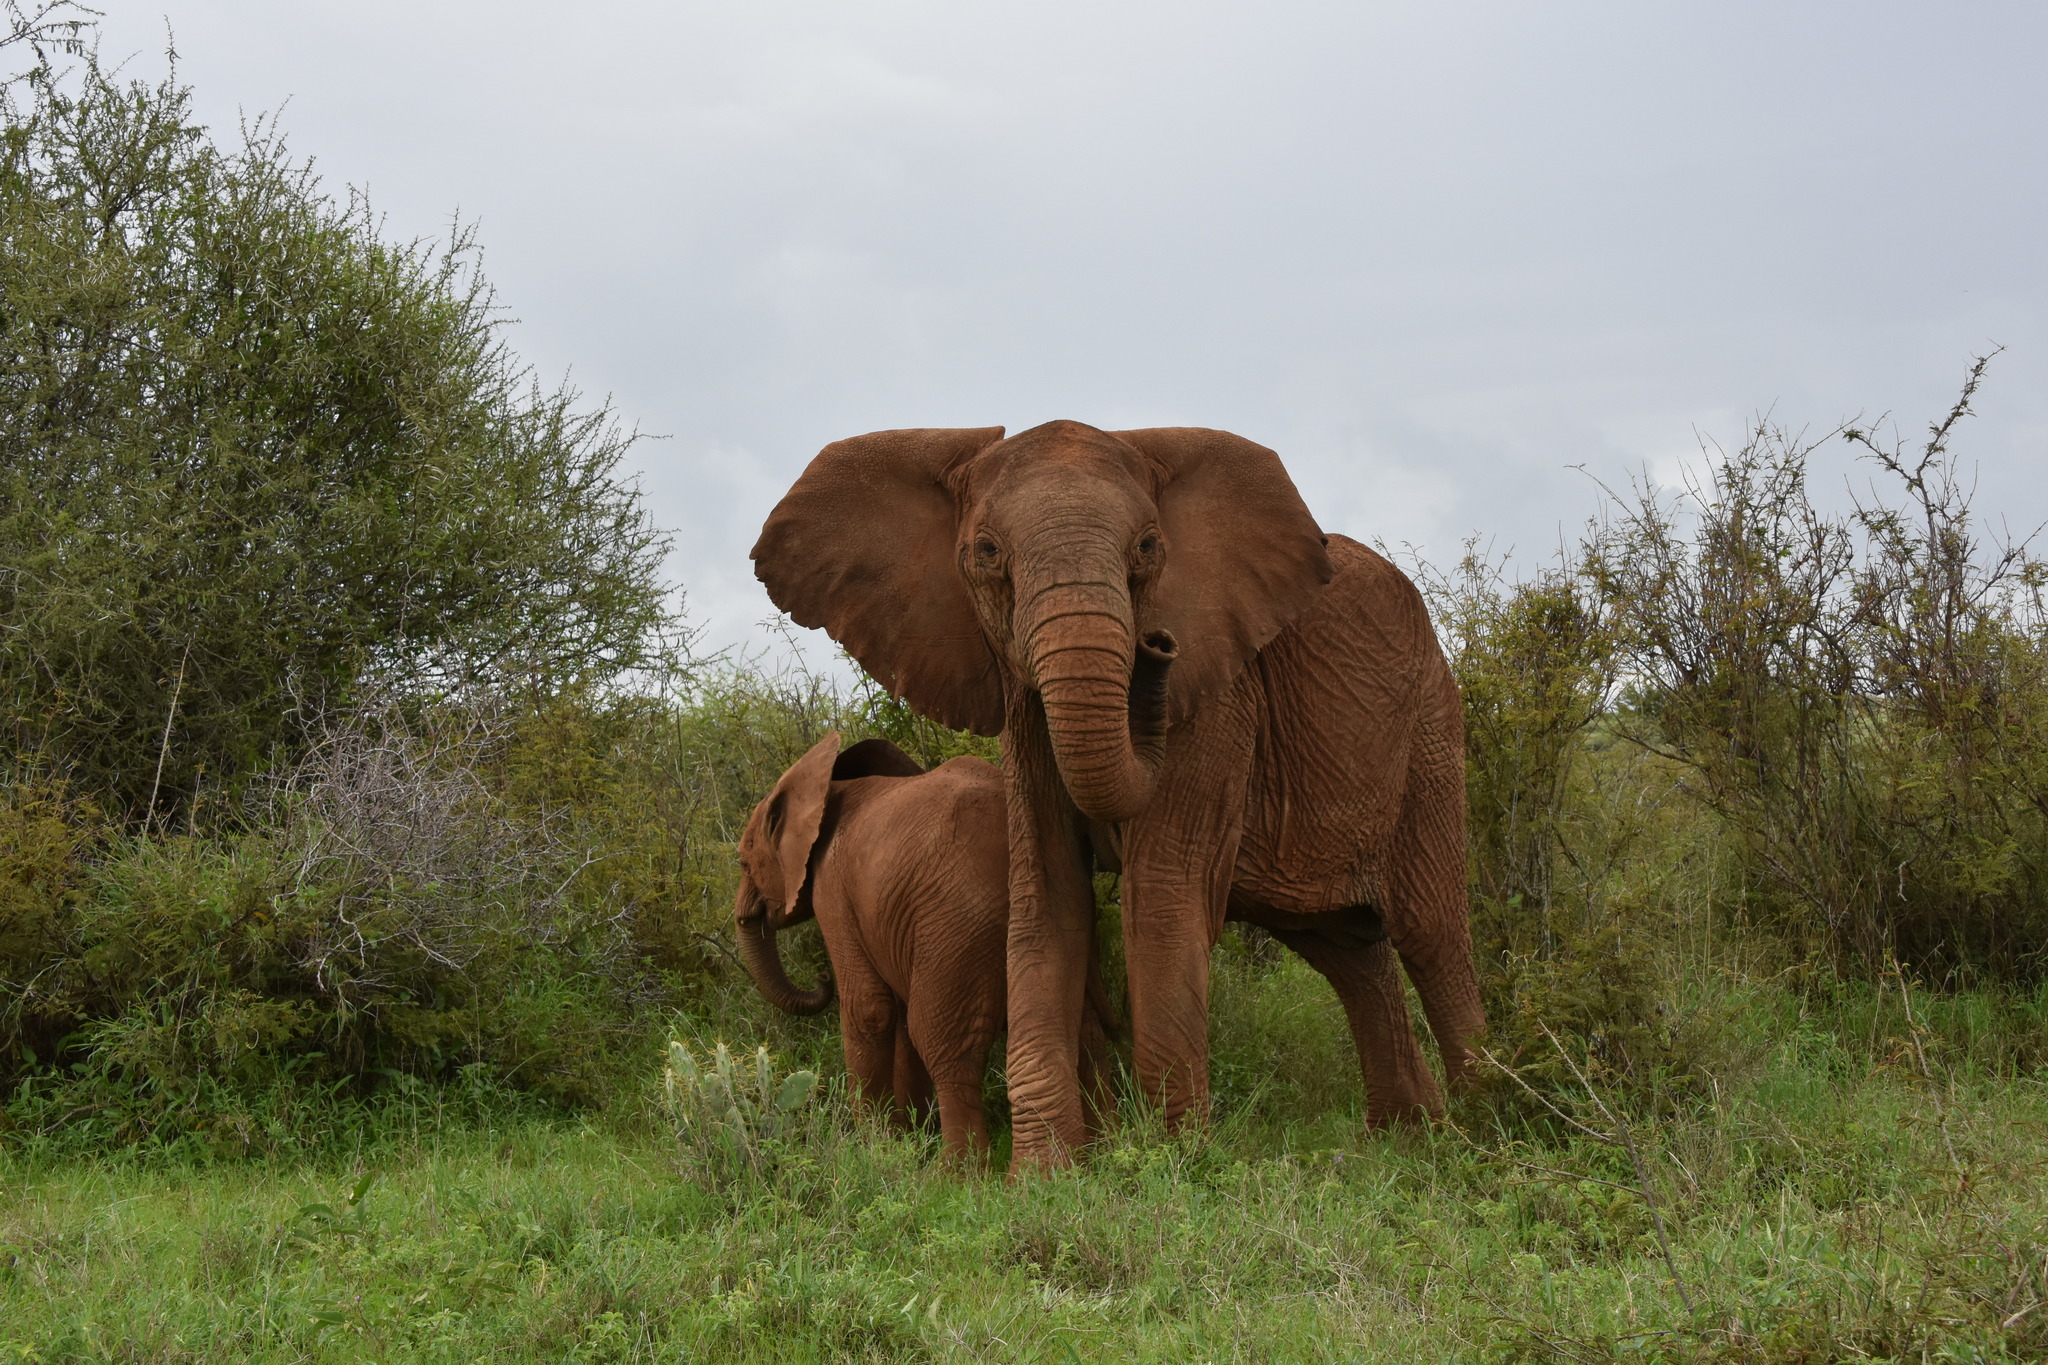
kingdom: Animalia
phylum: Chordata
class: Mammalia
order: Proboscidea
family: Elephantidae
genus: Loxodonta
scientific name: Loxodonta africana
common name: African elephant
